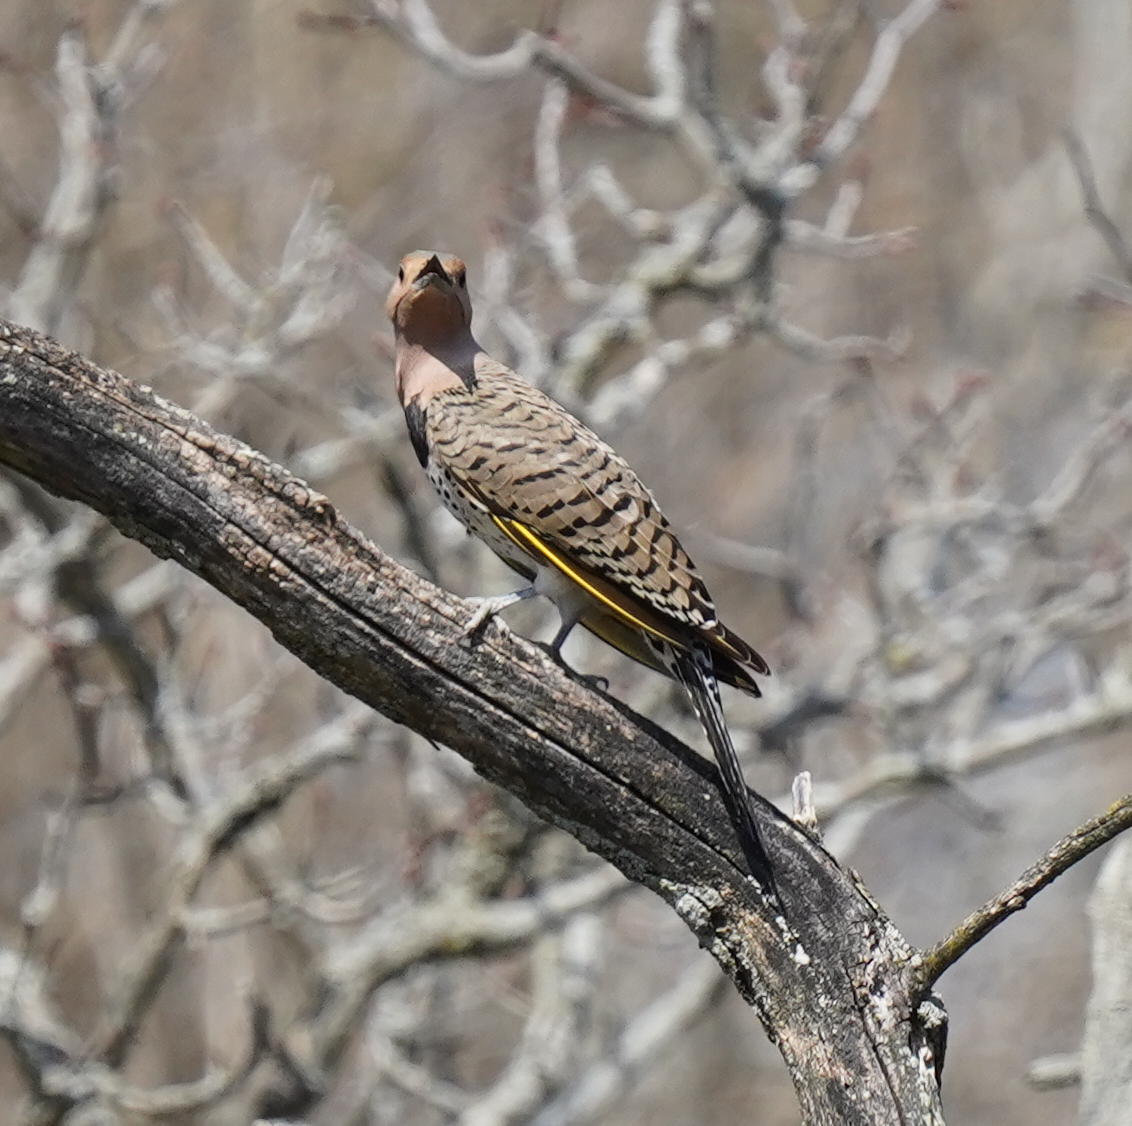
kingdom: Animalia
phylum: Chordata
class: Aves
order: Piciformes
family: Picidae
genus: Colaptes
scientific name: Colaptes auratus
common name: Northern flicker
